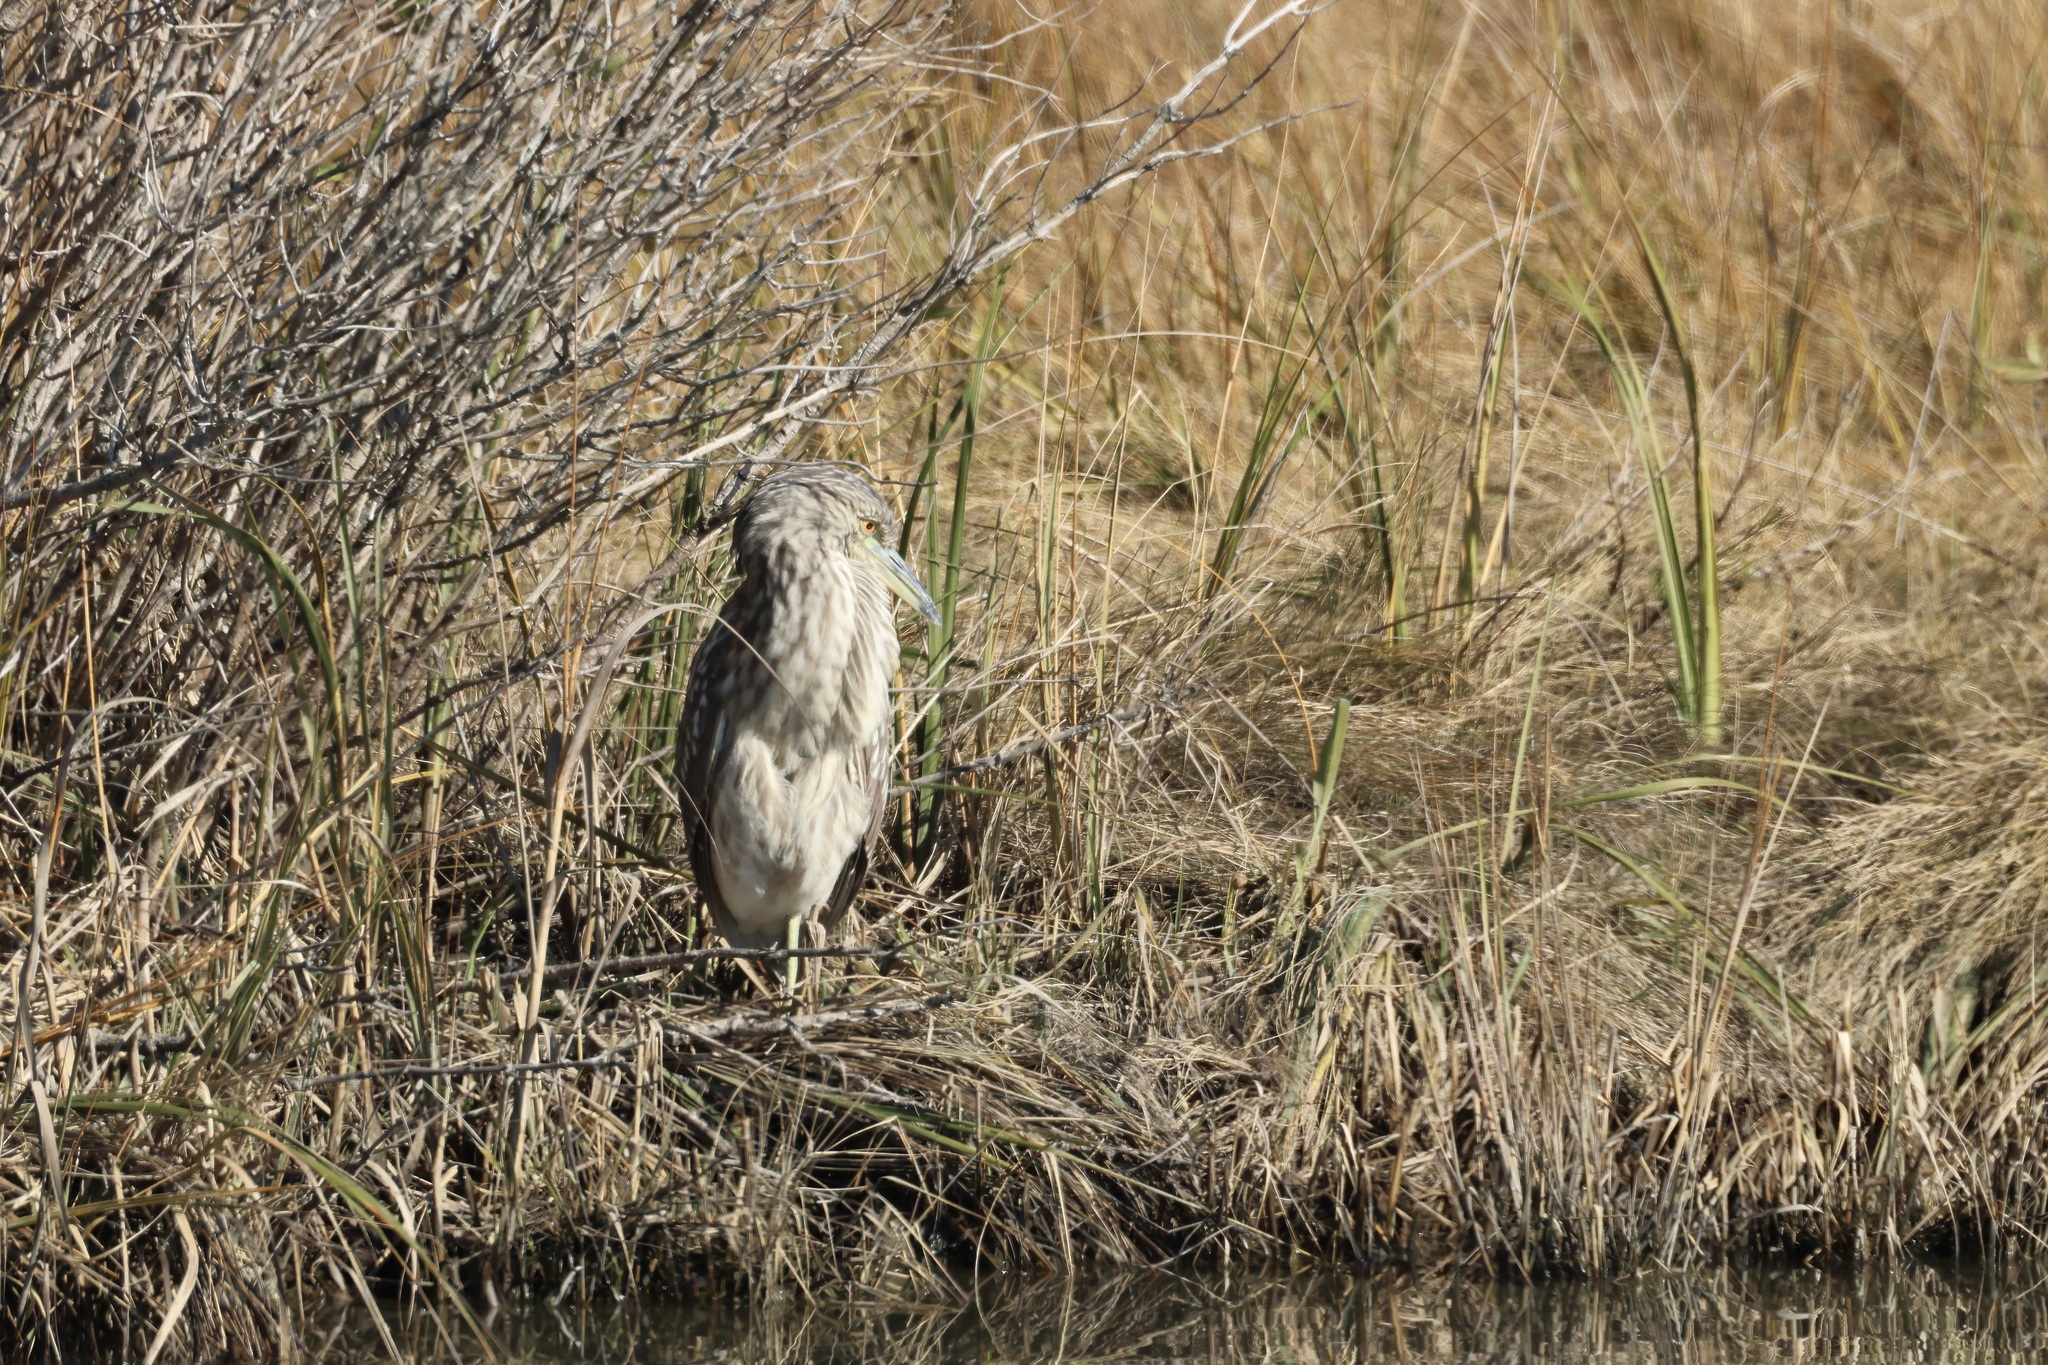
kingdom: Animalia
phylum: Chordata
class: Aves
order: Pelecaniformes
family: Ardeidae
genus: Nycticorax
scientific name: Nycticorax nycticorax
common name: Black-crowned night heron
